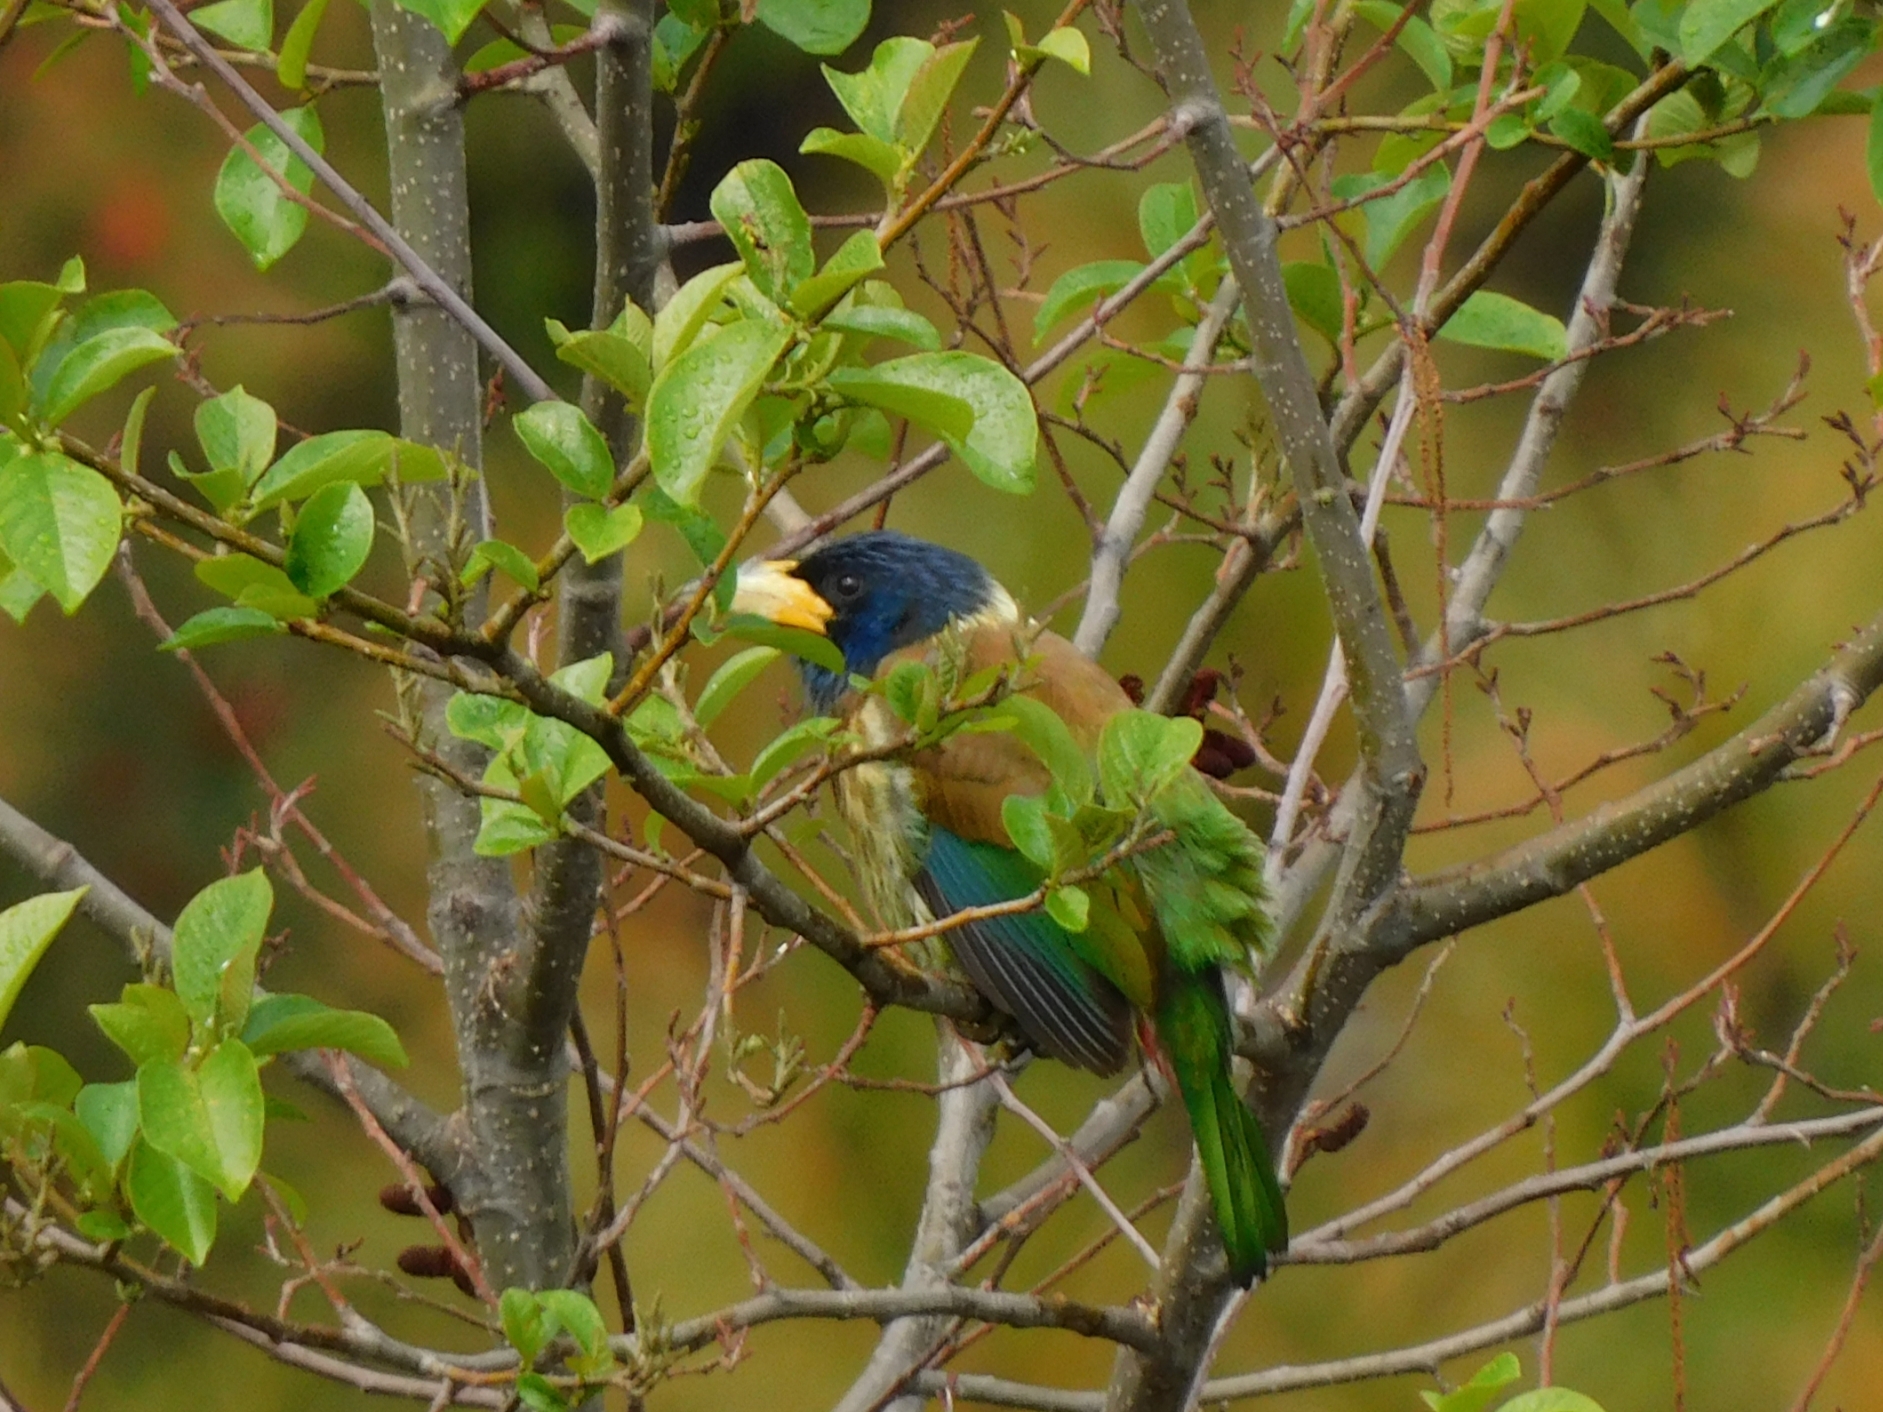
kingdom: Animalia
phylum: Chordata
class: Aves
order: Piciformes
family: Megalaimidae
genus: Psilopogon
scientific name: Psilopogon virens
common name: Great barbet
